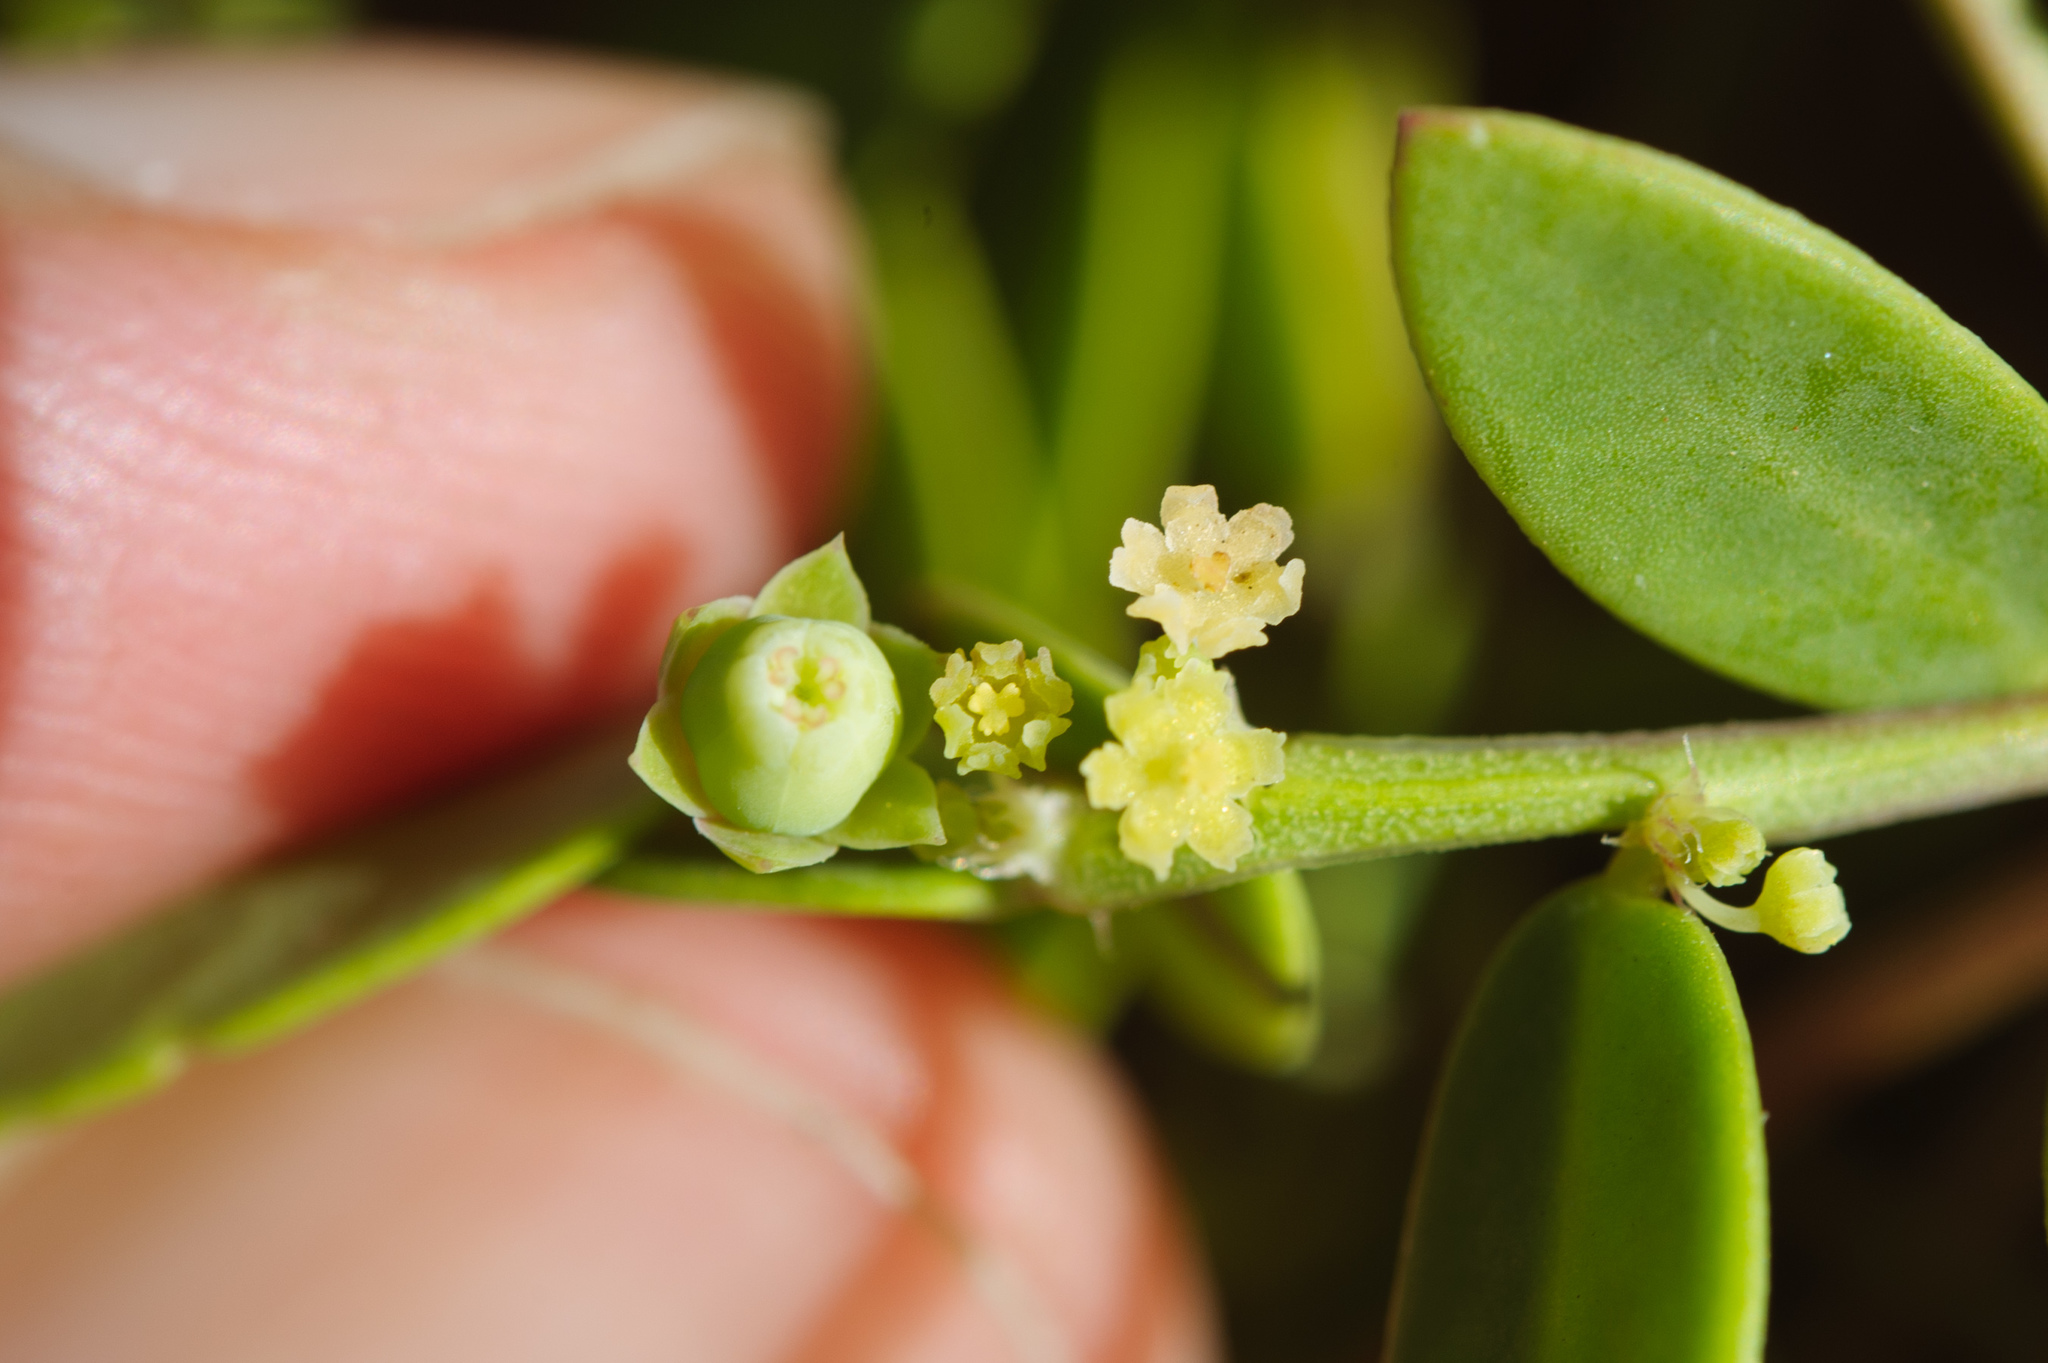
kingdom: Plantae
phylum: Tracheophyta
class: Magnoliopsida
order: Malpighiales
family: Phyllanthaceae
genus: Synostemon
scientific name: Synostemon bacciformis
